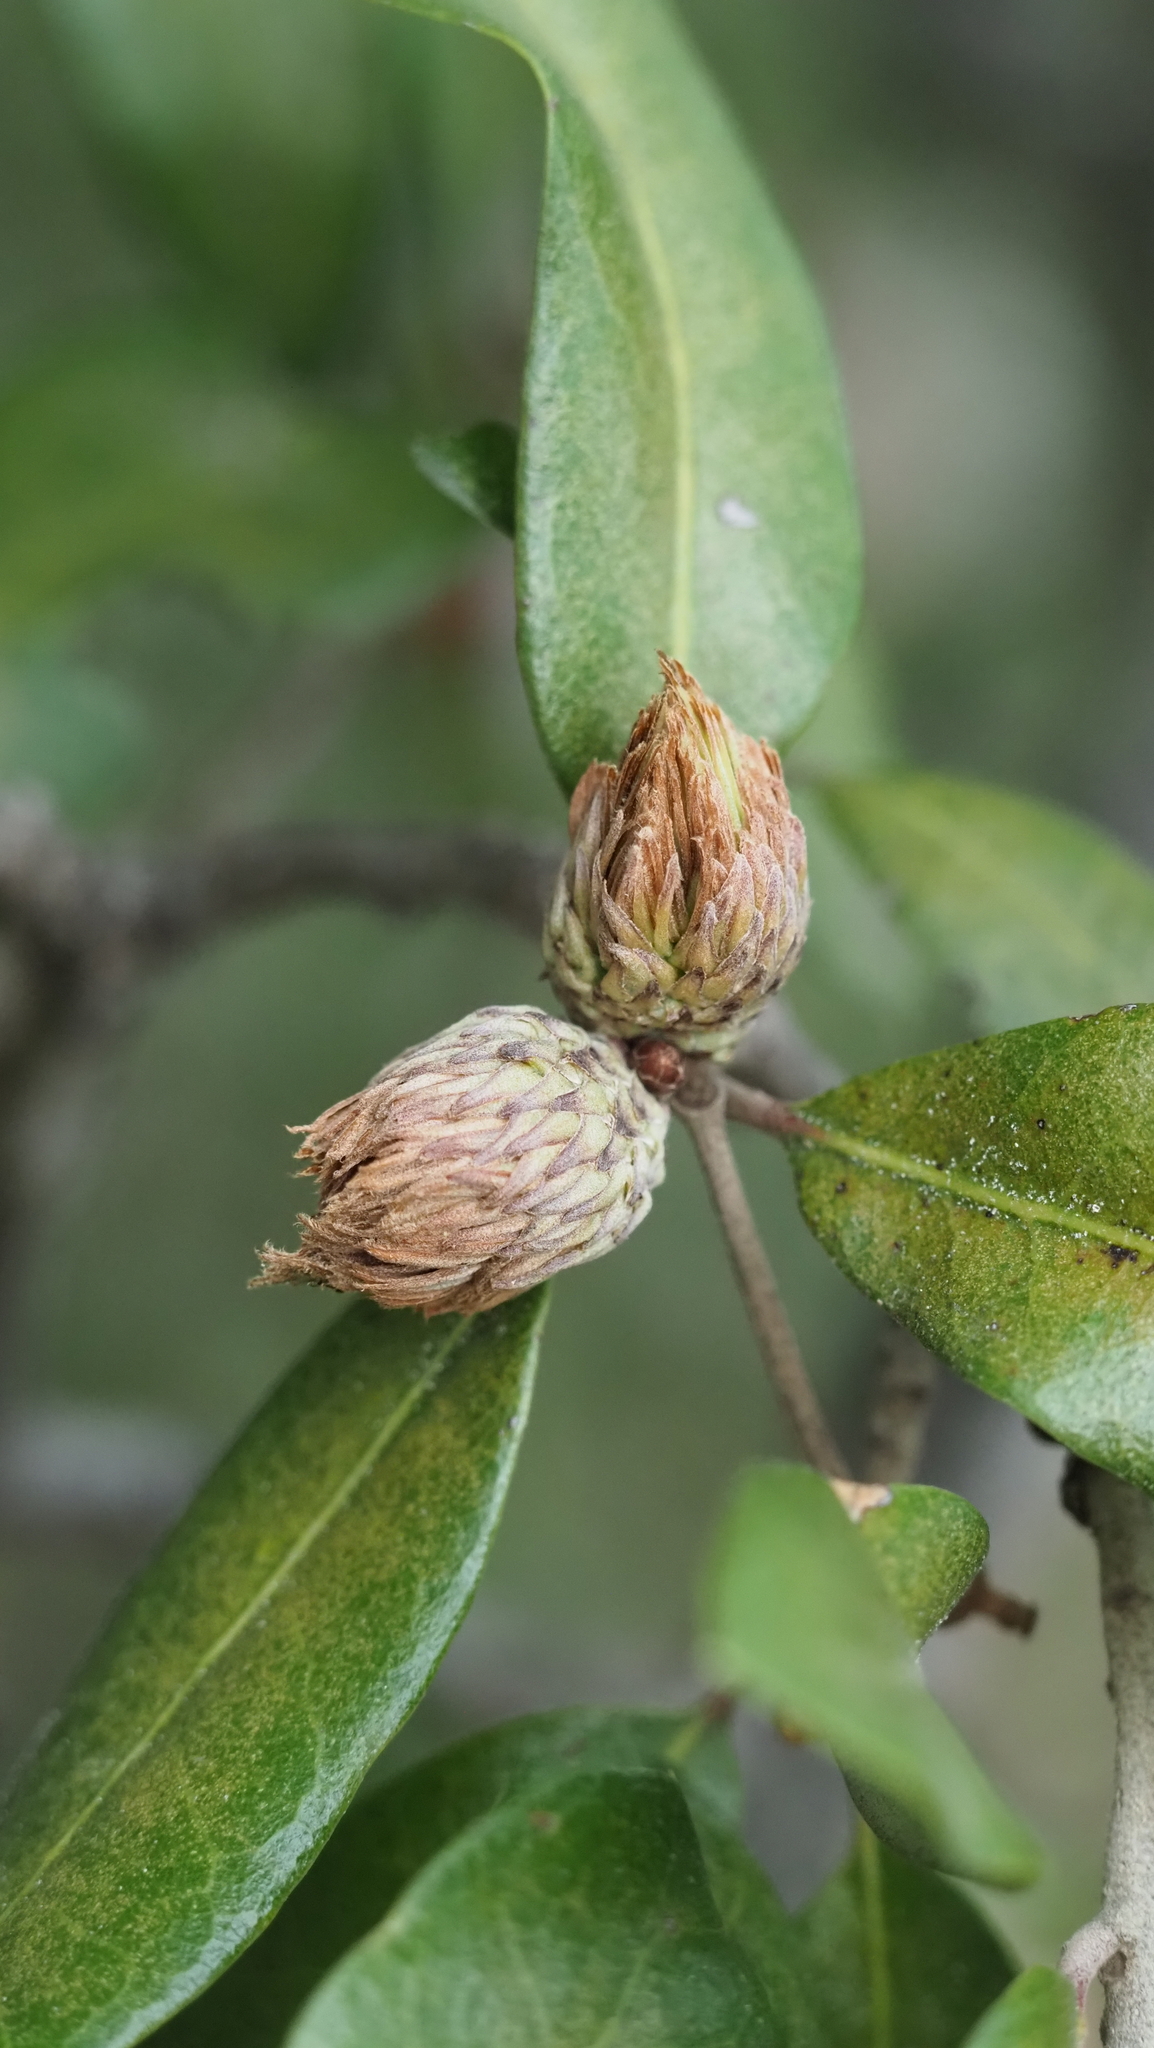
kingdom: Animalia
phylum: Arthropoda
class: Insecta
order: Hymenoptera
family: Cynipidae
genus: Andricus
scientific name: Andricus quercusfoliatus
